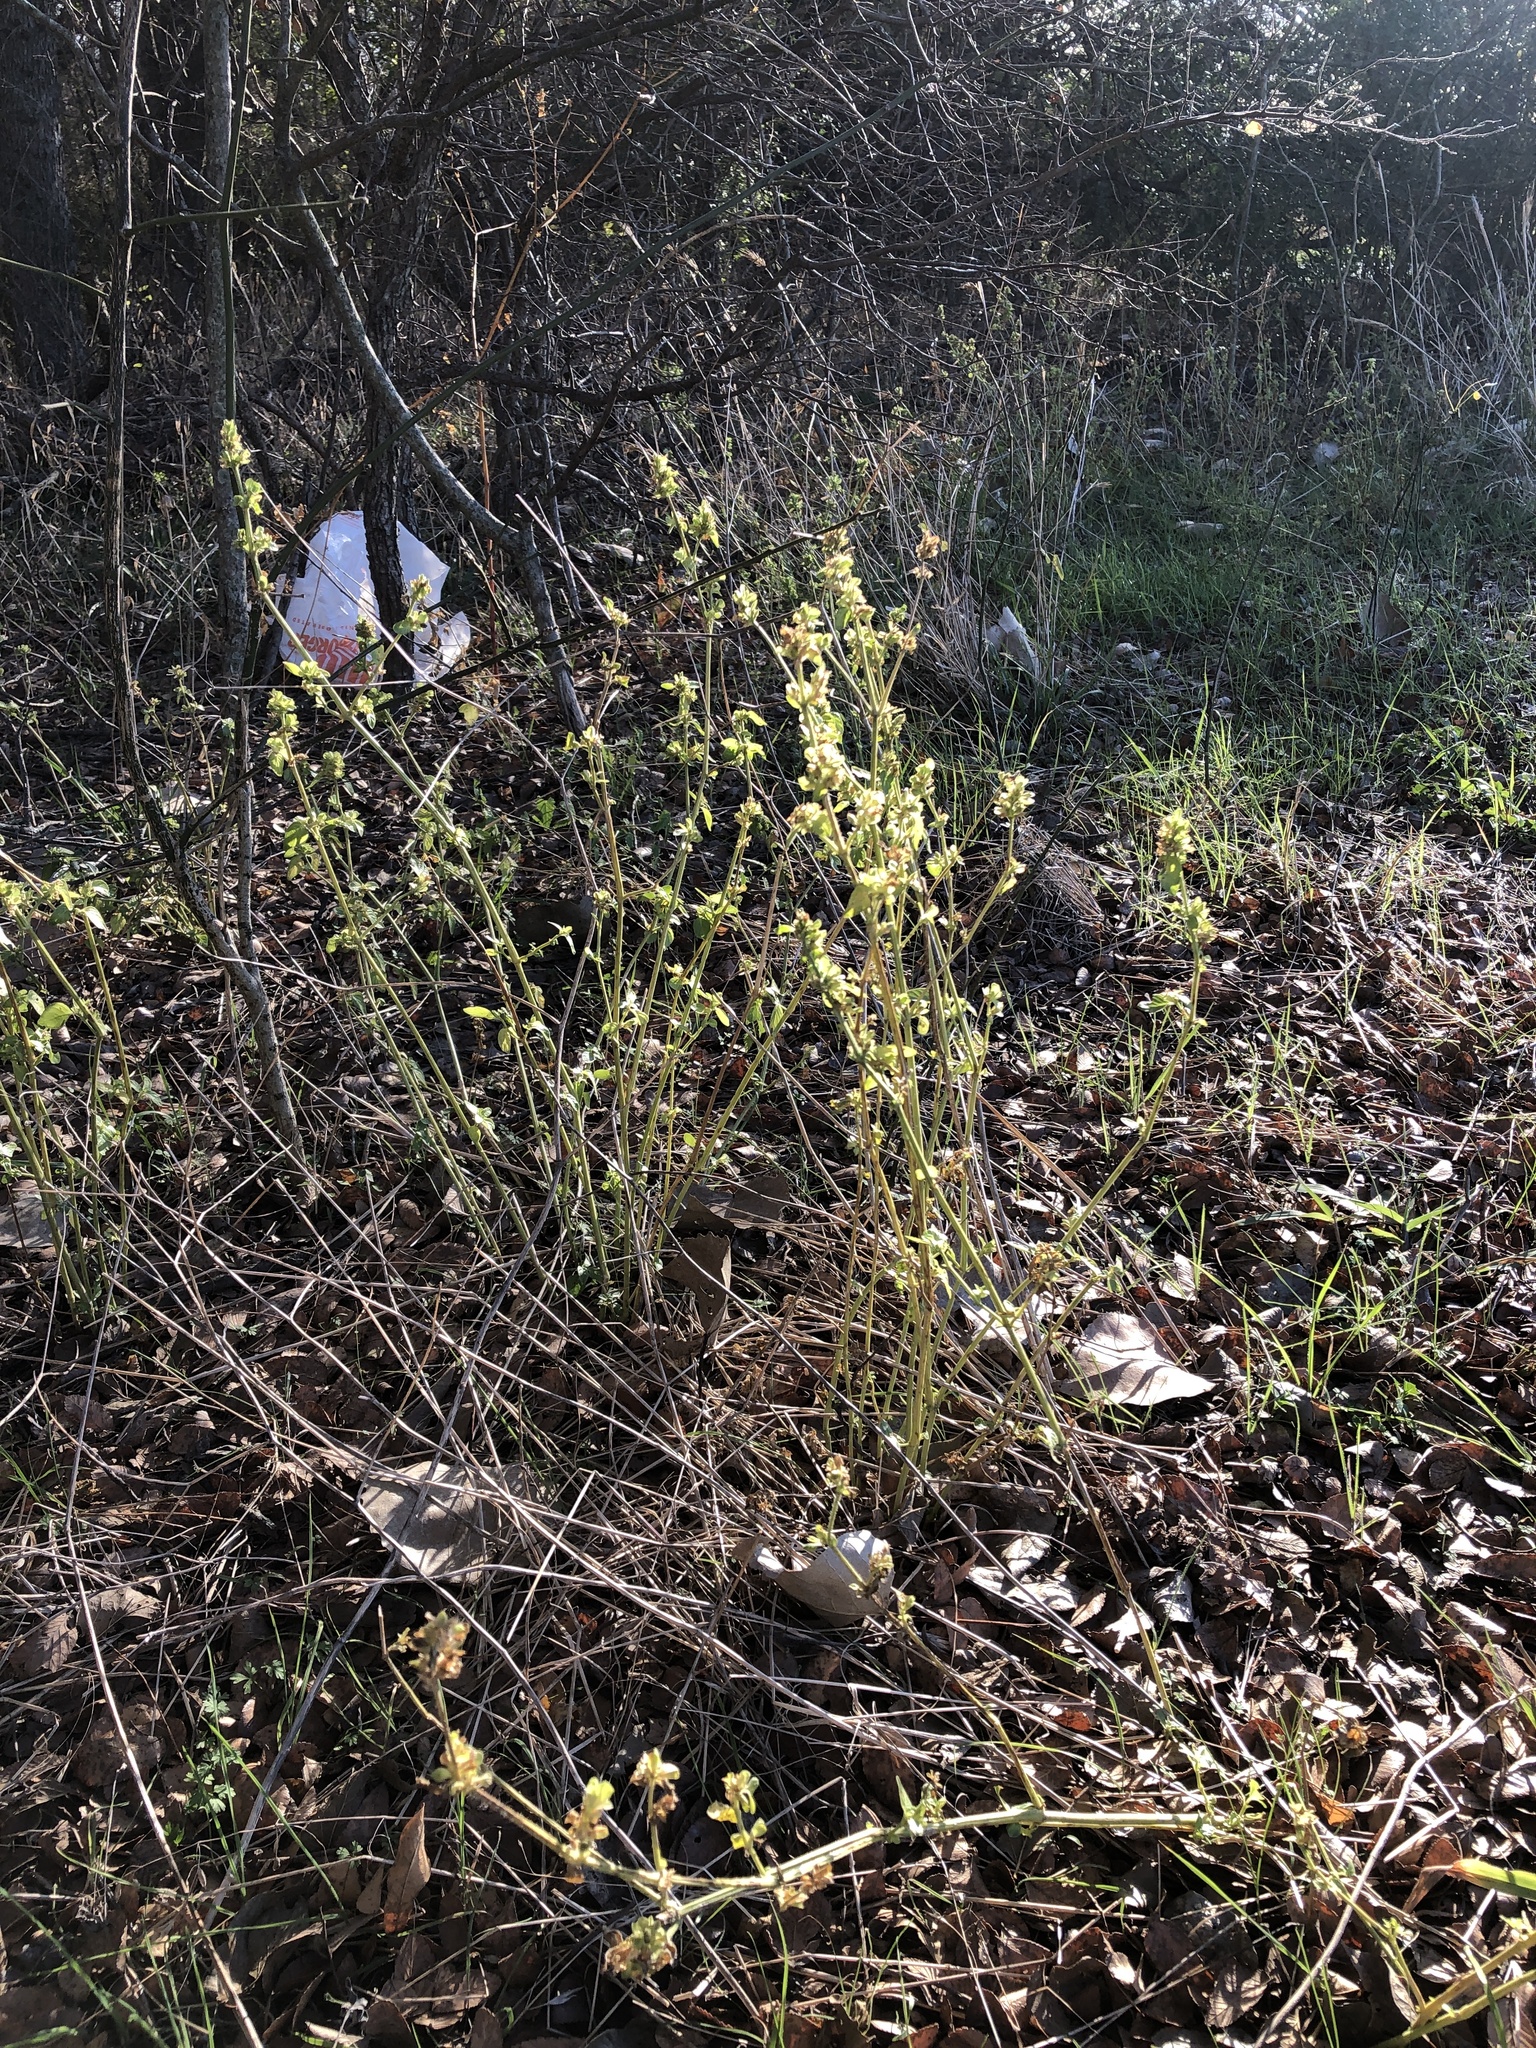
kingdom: Plantae
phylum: Tracheophyta
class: Magnoliopsida
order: Lamiales
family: Acanthaceae
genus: Dicliptera
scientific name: Dicliptera brachiata
